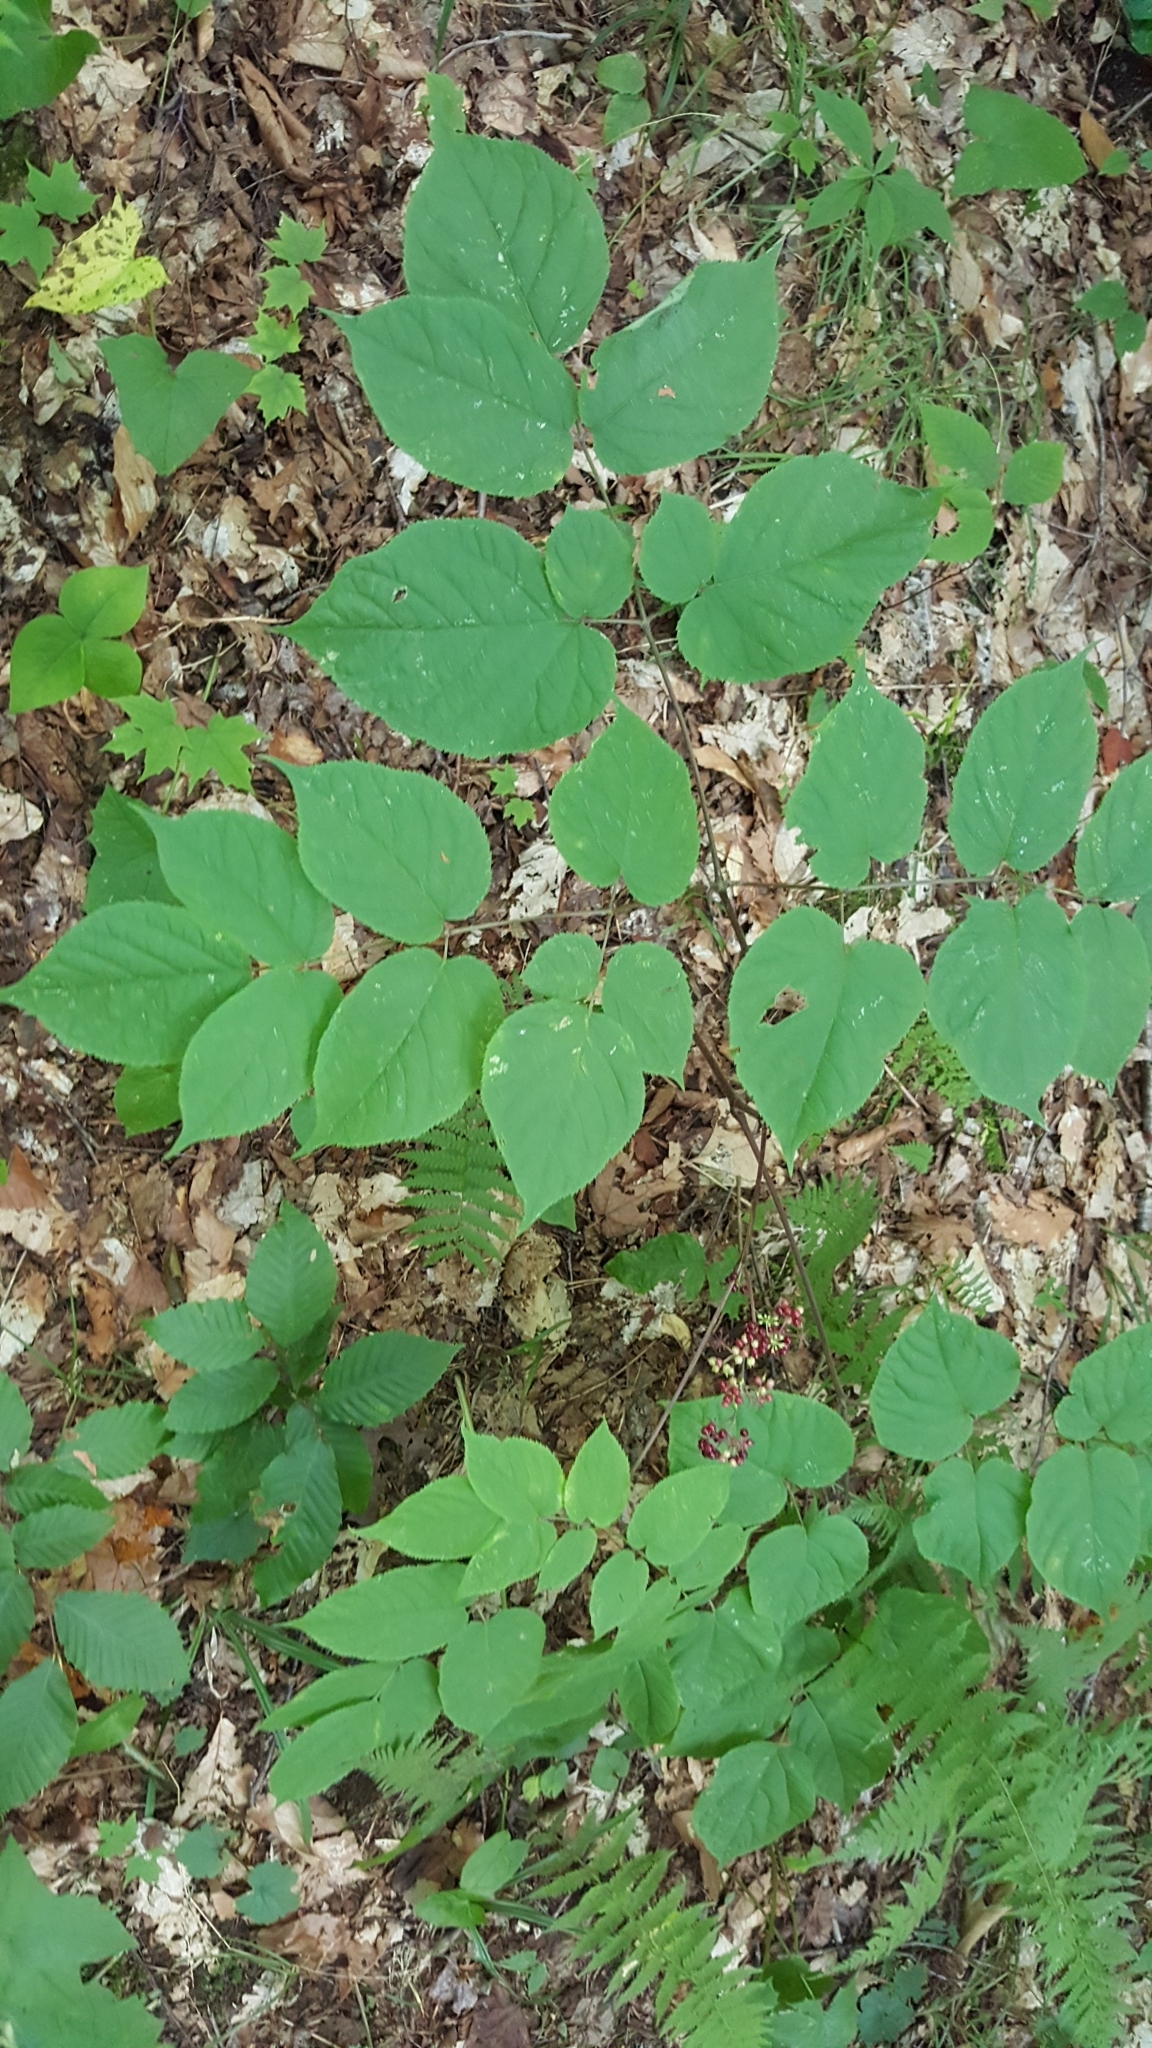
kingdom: Plantae
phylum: Tracheophyta
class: Magnoliopsida
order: Apiales
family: Araliaceae
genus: Aralia
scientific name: Aralia racemosa
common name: American-spikenard
